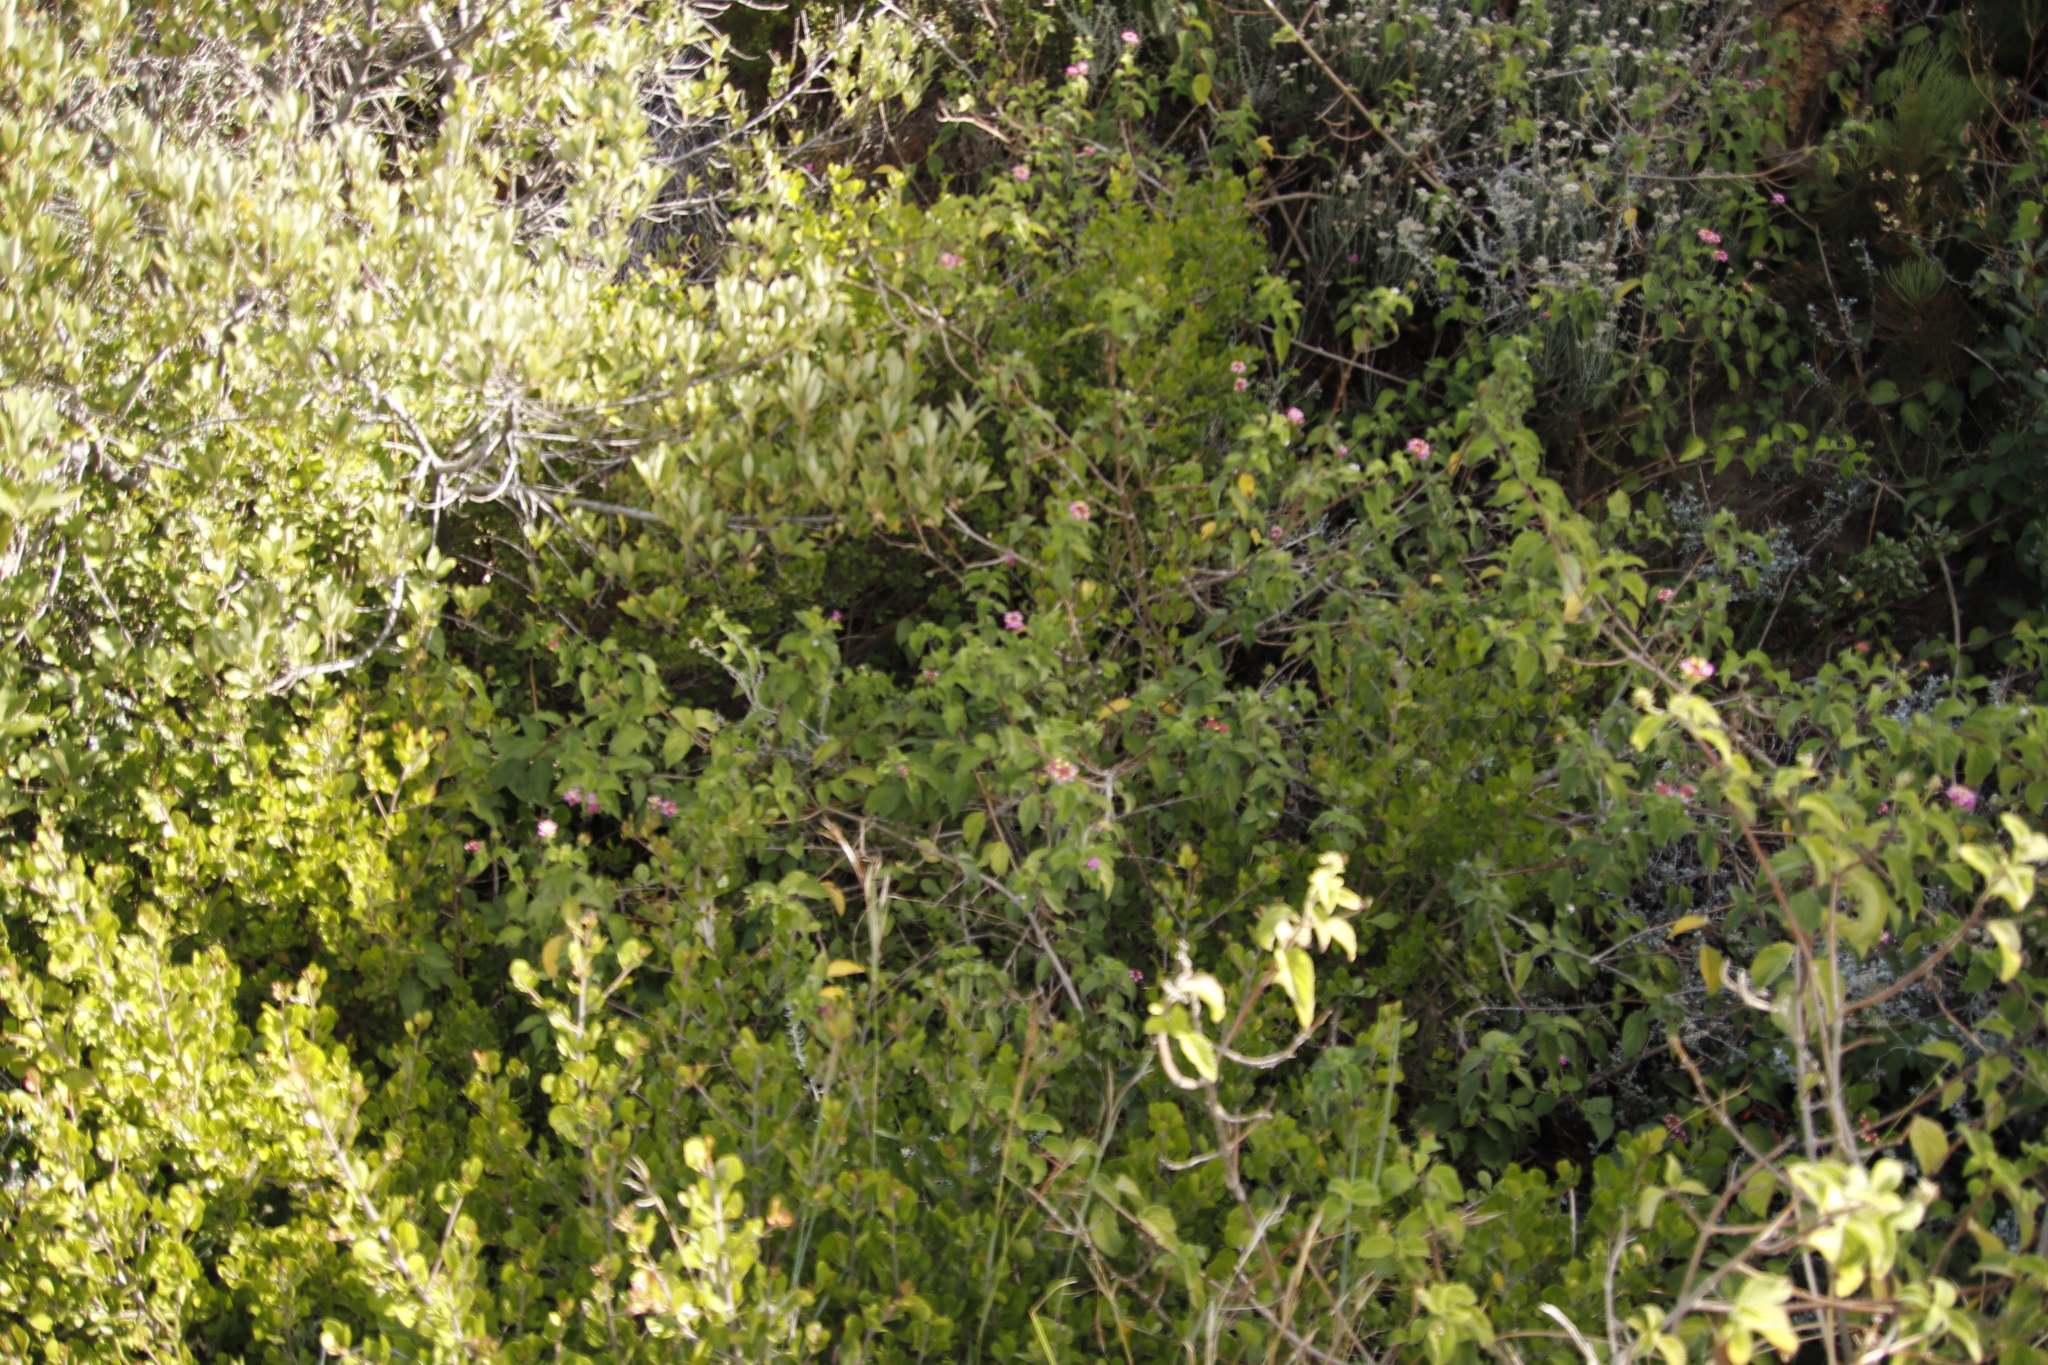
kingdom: Plantae
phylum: Tracheophyta
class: Magnoliopsida
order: Lamiales
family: Verbenaceae
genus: Lantana
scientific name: Lantana camara
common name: Lantana
